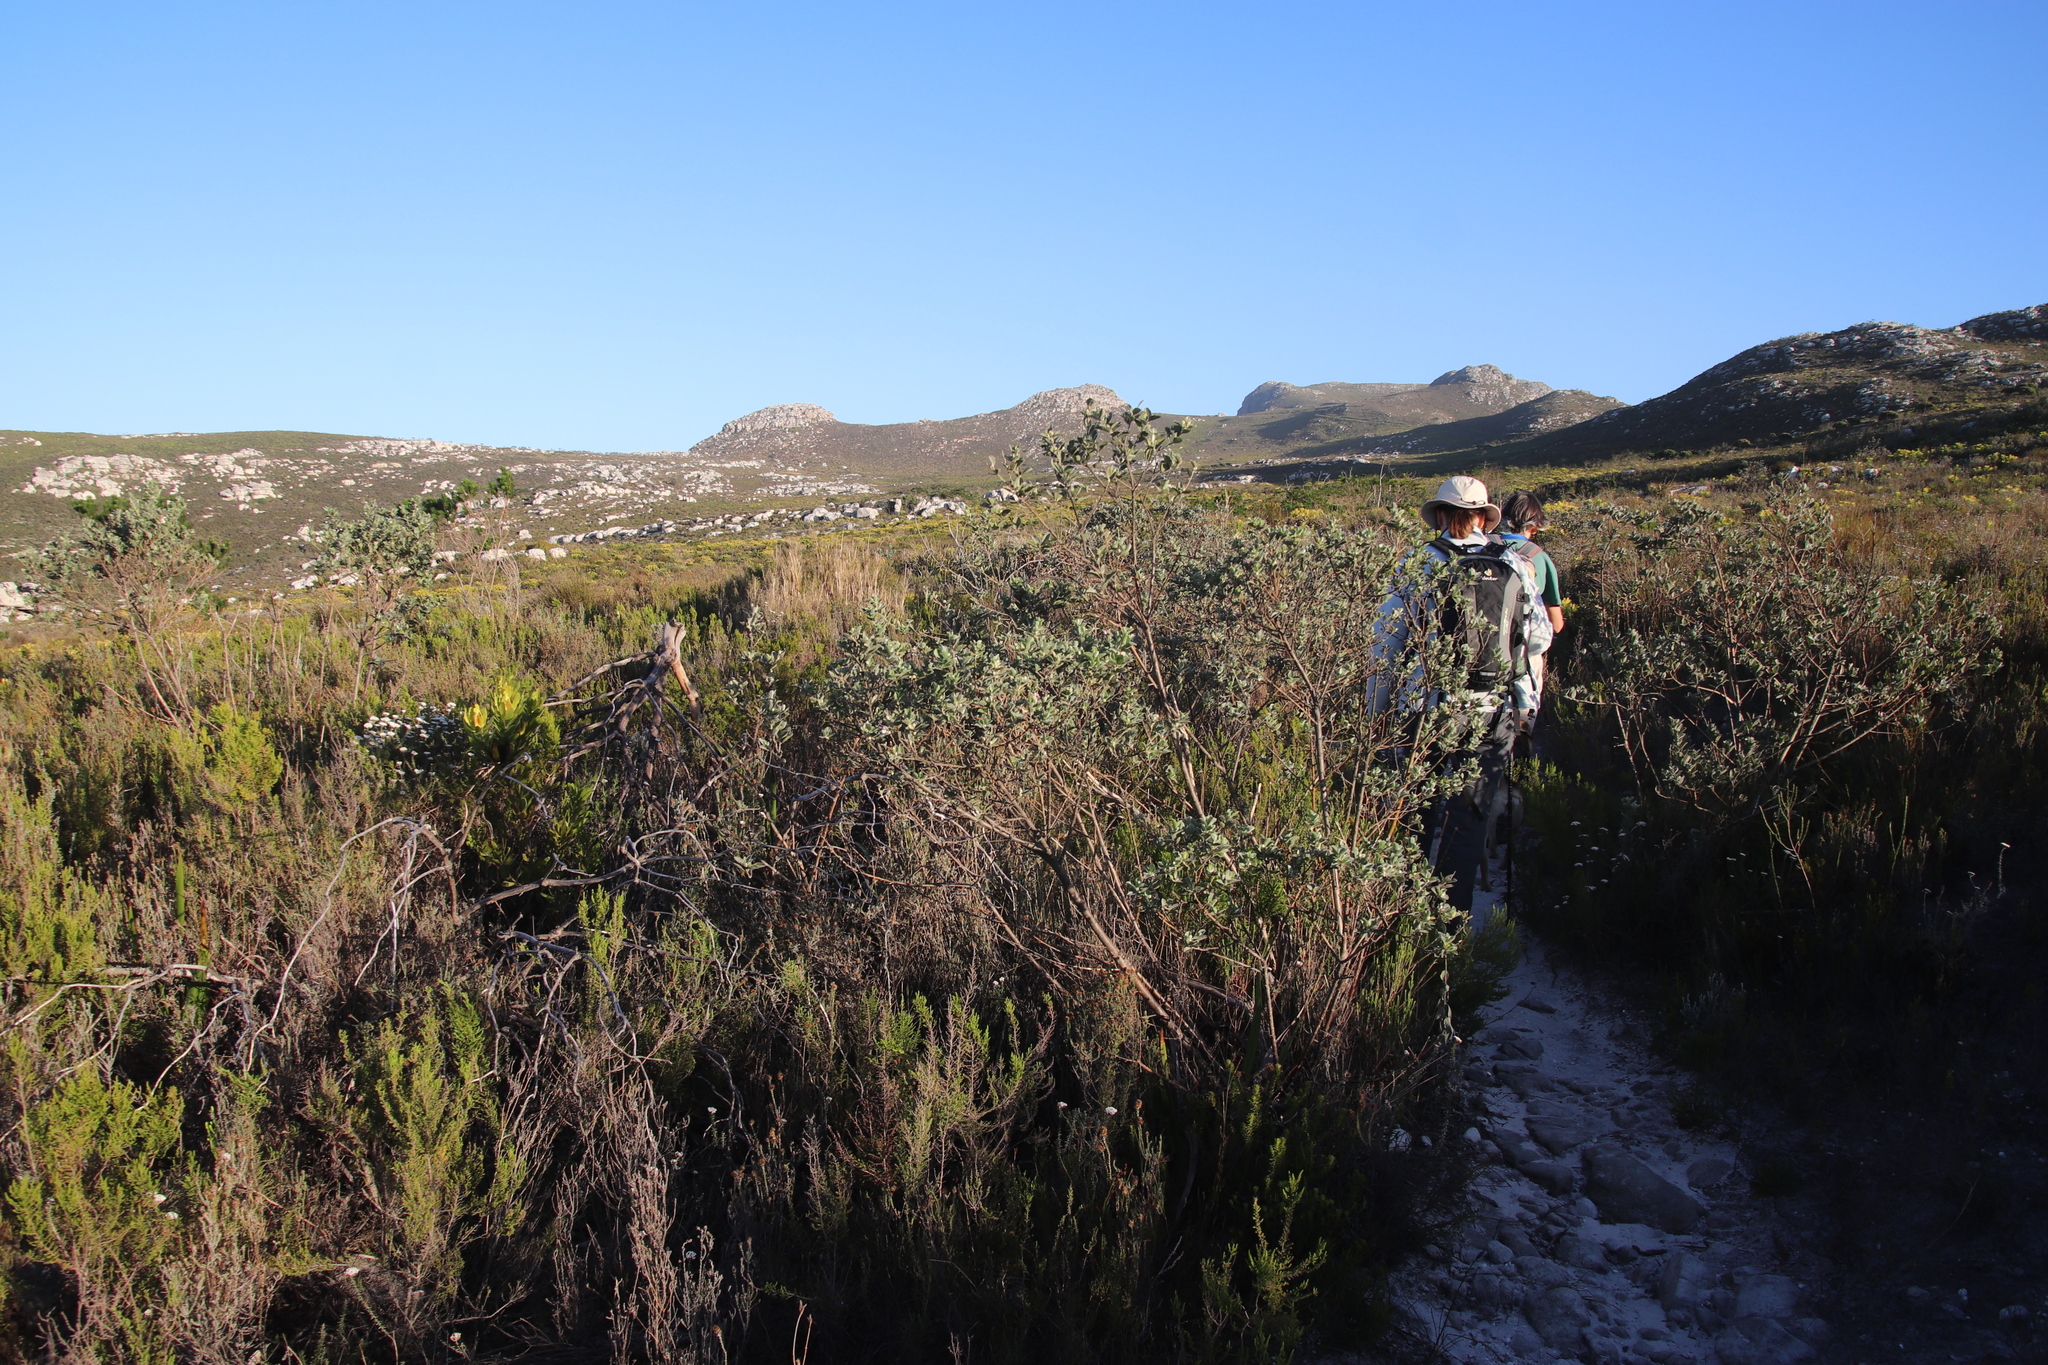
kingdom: Plantae
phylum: Tracheophyta
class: Magnoliopsida
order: Fabales
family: Fabaceae
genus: Podalyria
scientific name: Podalyria calyptrata
